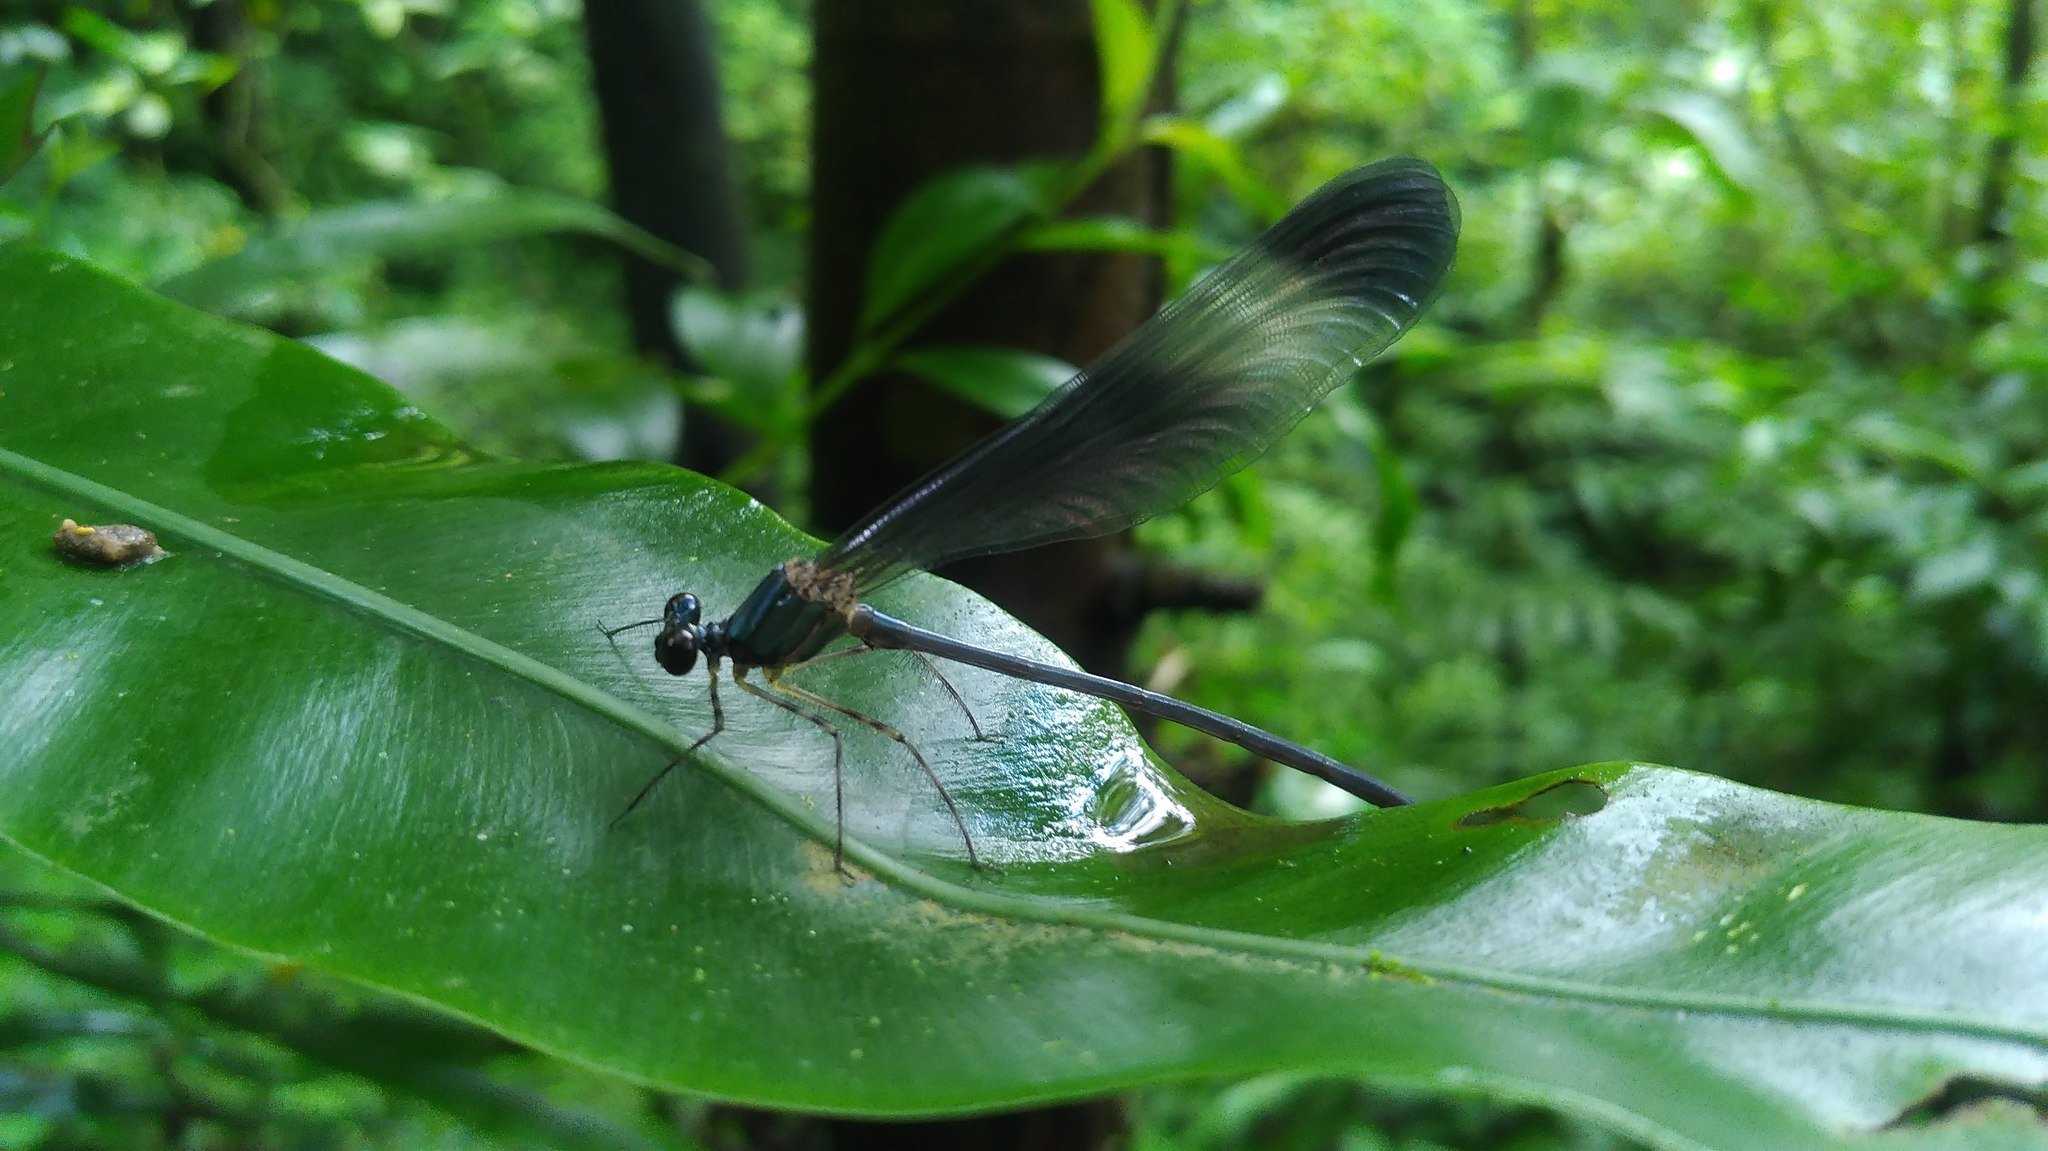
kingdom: Animalia
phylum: Arthropoda
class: Insecta
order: Odonata
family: Calopterygidae
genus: Psolodesmus
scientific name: Psolodesmus mandarinus
